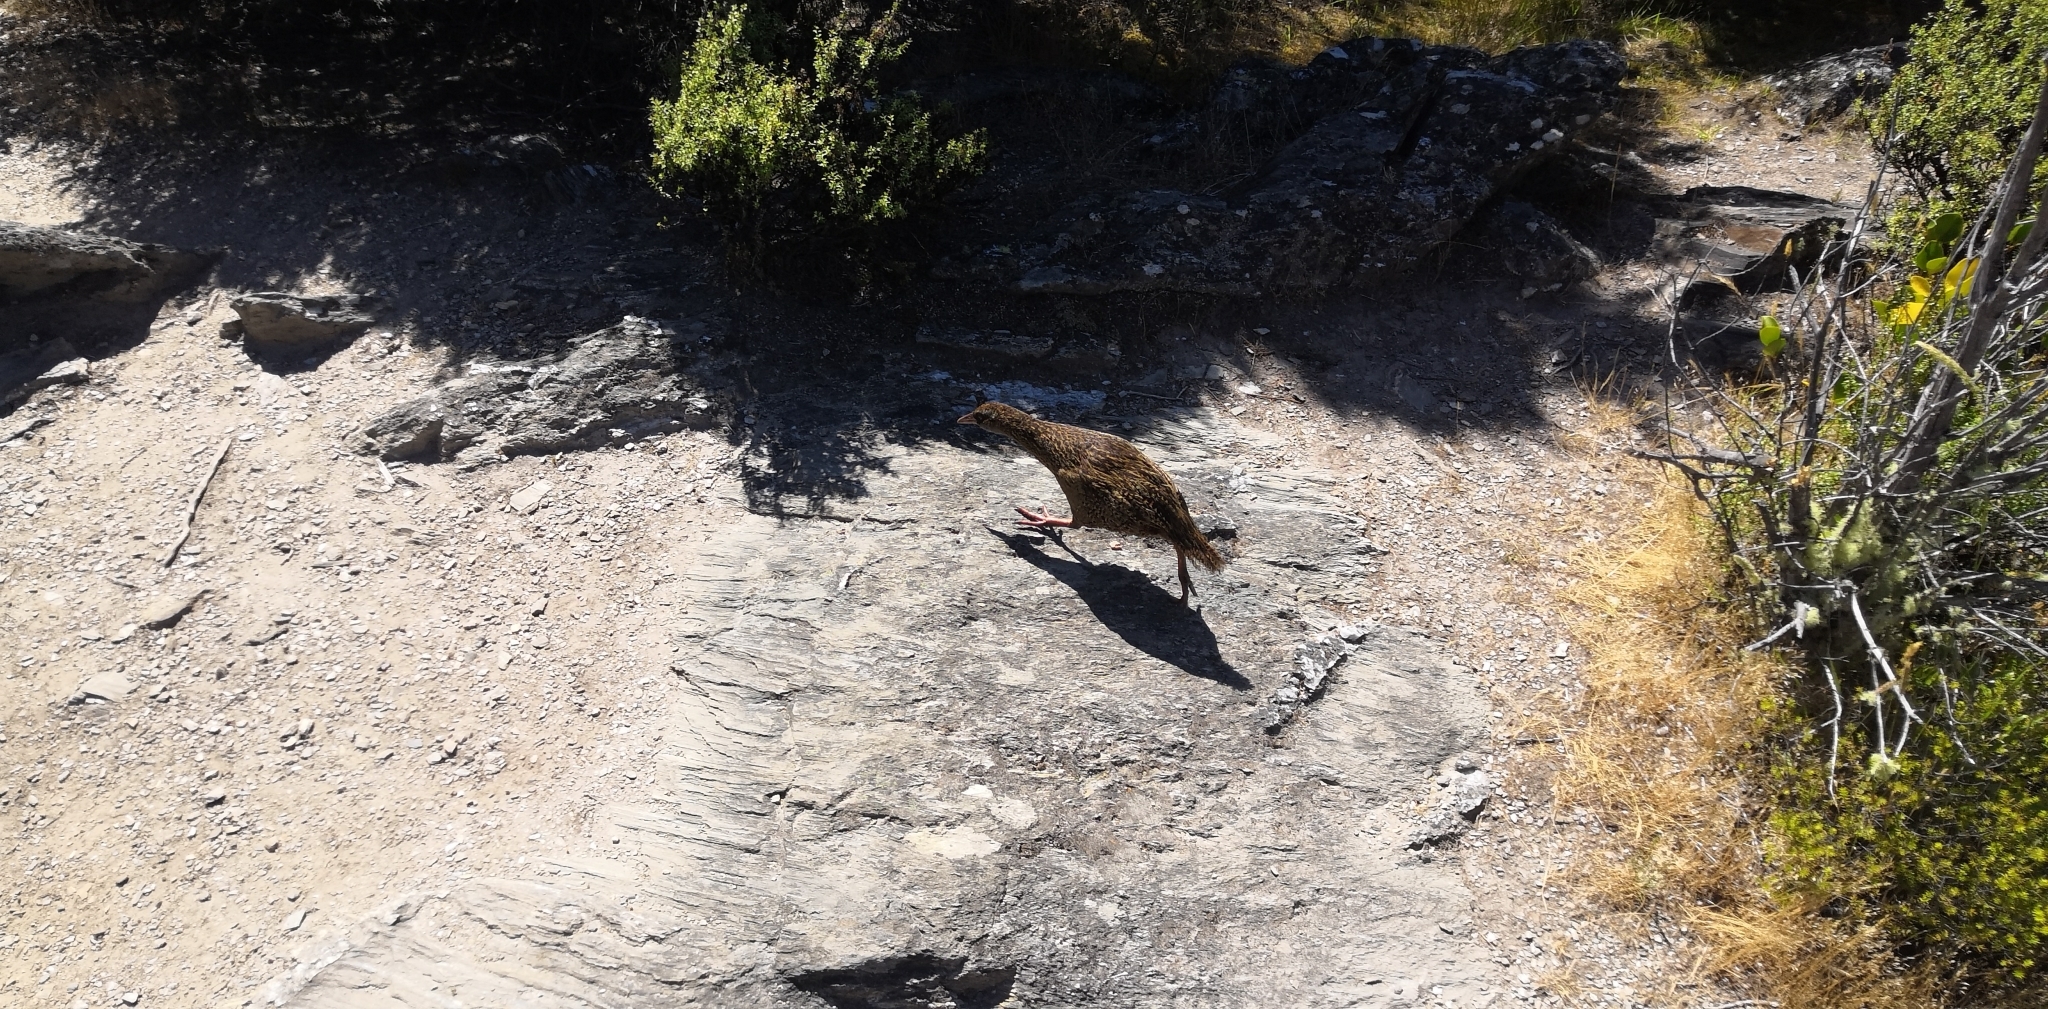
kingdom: Animalia
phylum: Chordata
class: Aves
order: Gruiformes
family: Rallidae
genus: Gallirallus
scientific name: Gallirallus australis
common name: Weka
